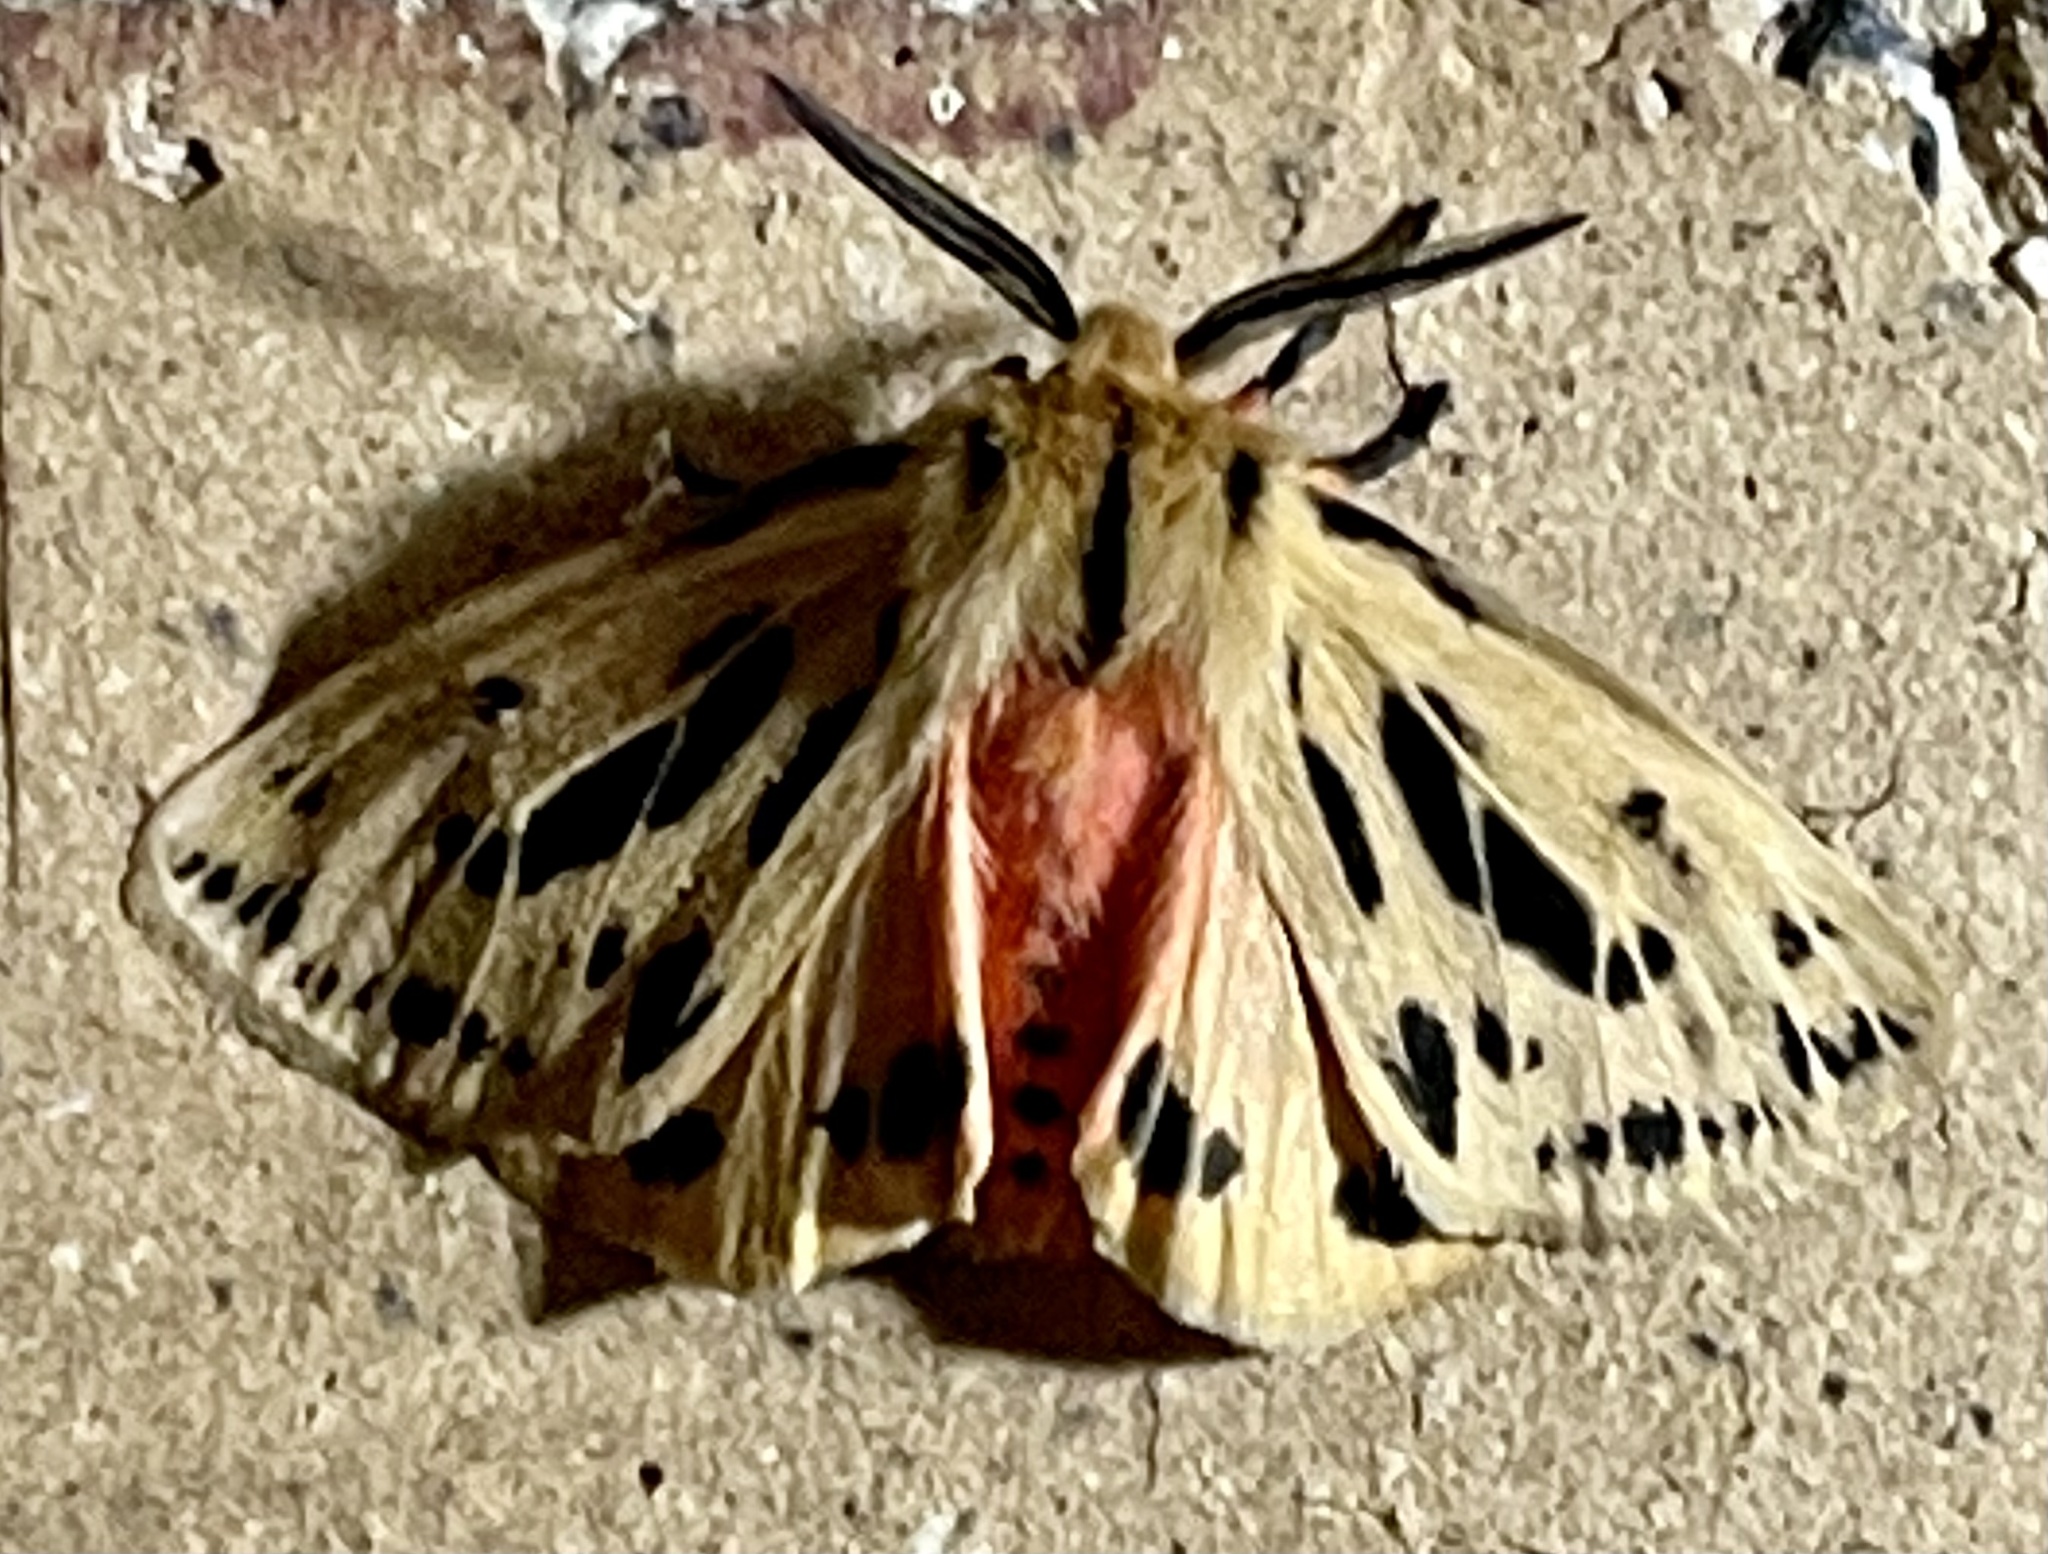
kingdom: Animalia
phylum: Arthropoda
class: Insecta
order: Lepidoptera
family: Erebidae
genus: Ardices
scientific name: Ardices curvata
